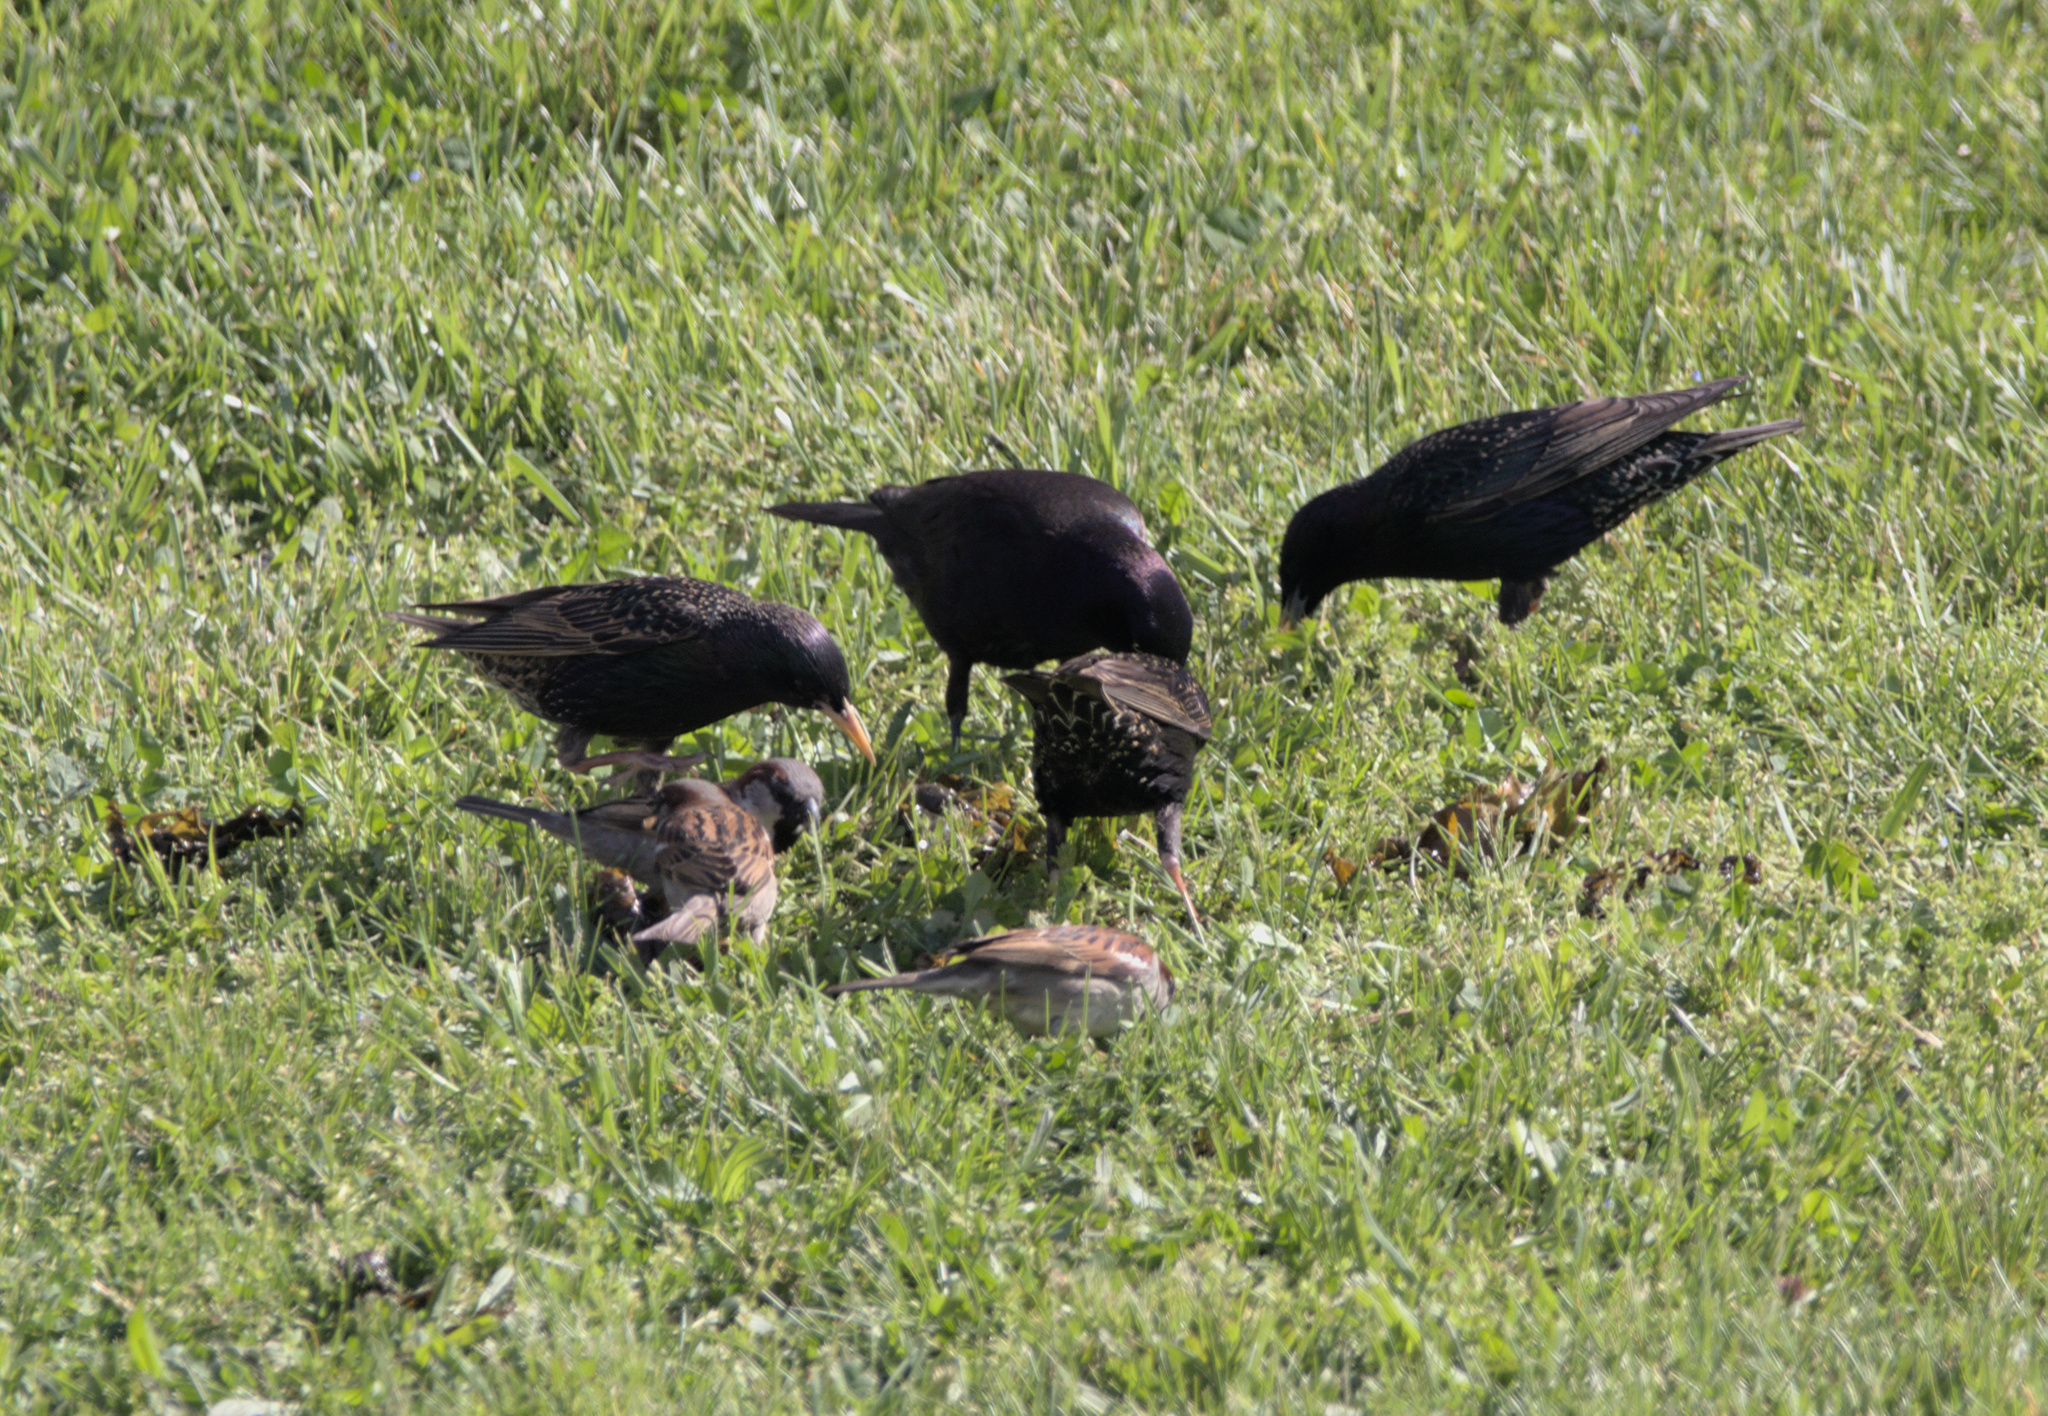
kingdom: Animalia
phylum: Chordata
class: Aves
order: Passeriformes
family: Passeridae
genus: Passer
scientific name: Passer domesticus
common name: House sparrow
